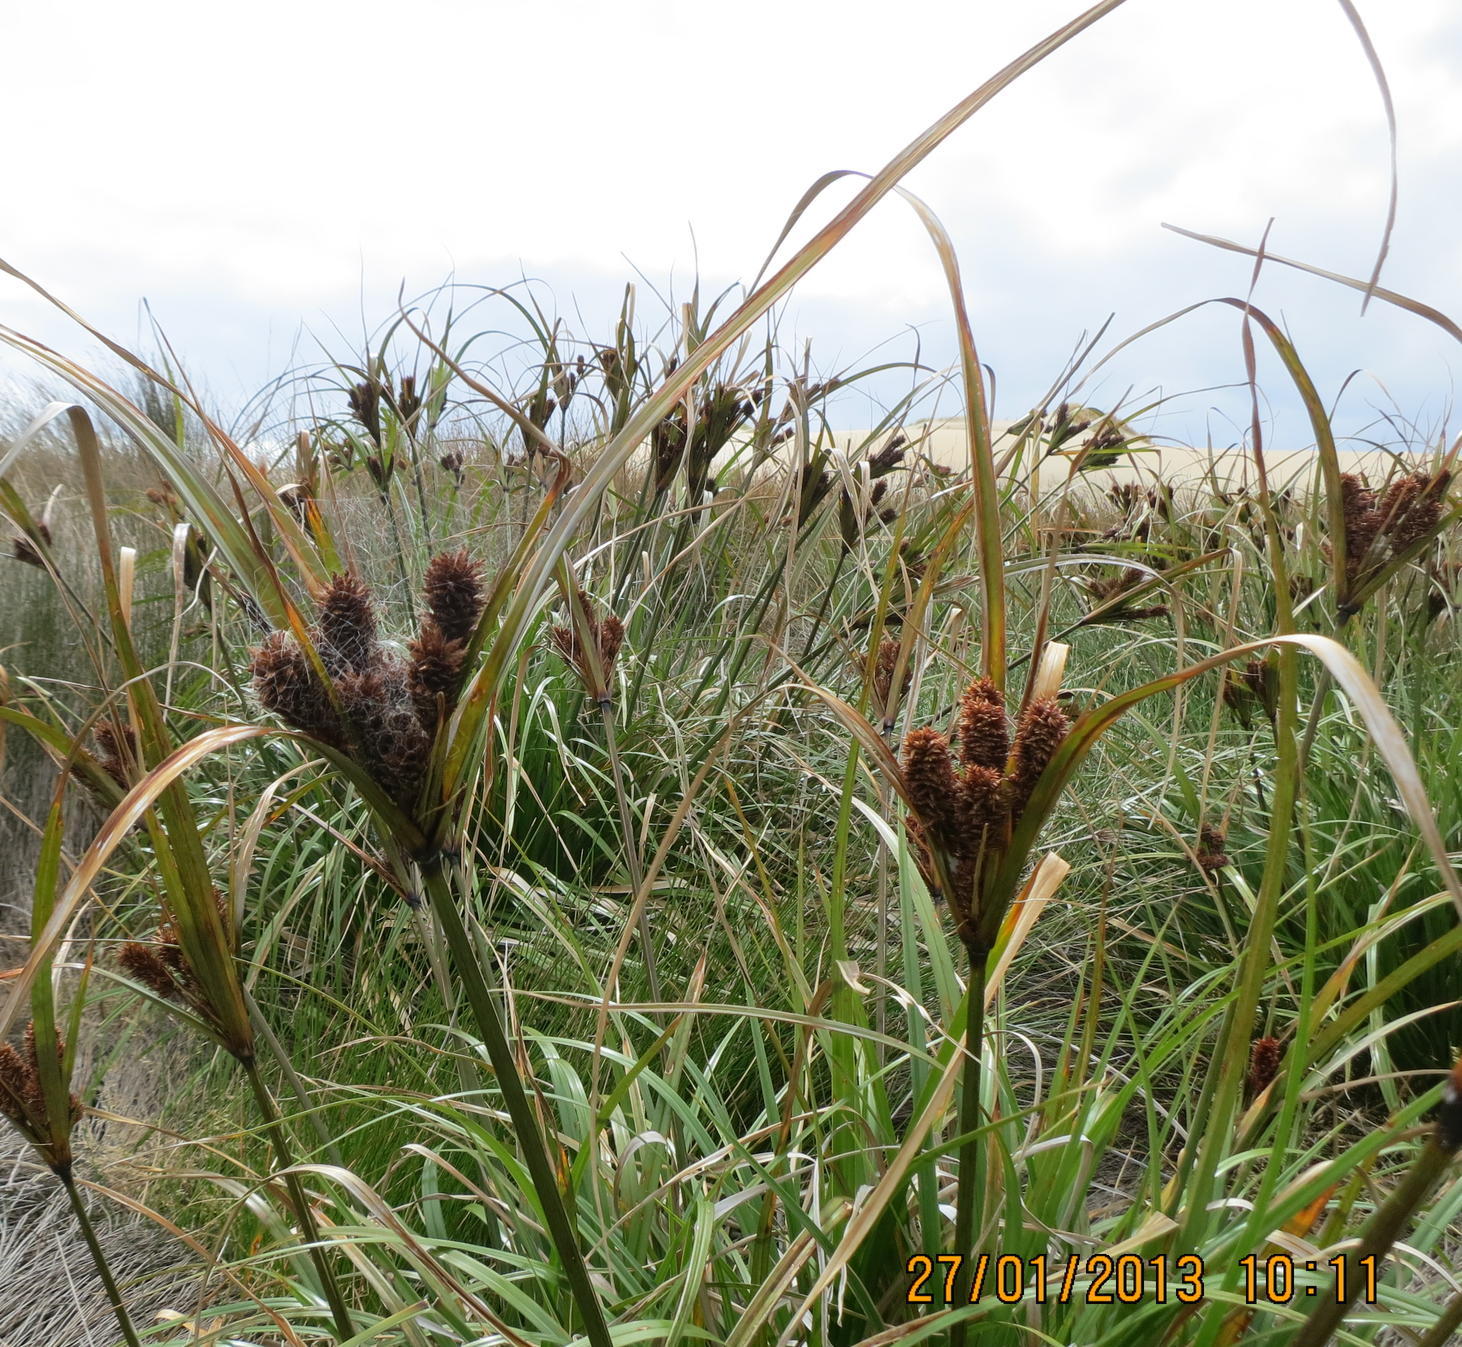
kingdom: Plantae
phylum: Tracheophyta
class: Liliopsida
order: Poales
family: Cyperaceae
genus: Cyperus
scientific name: Cyperus ustulatus
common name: Giant umbrella-sedge
